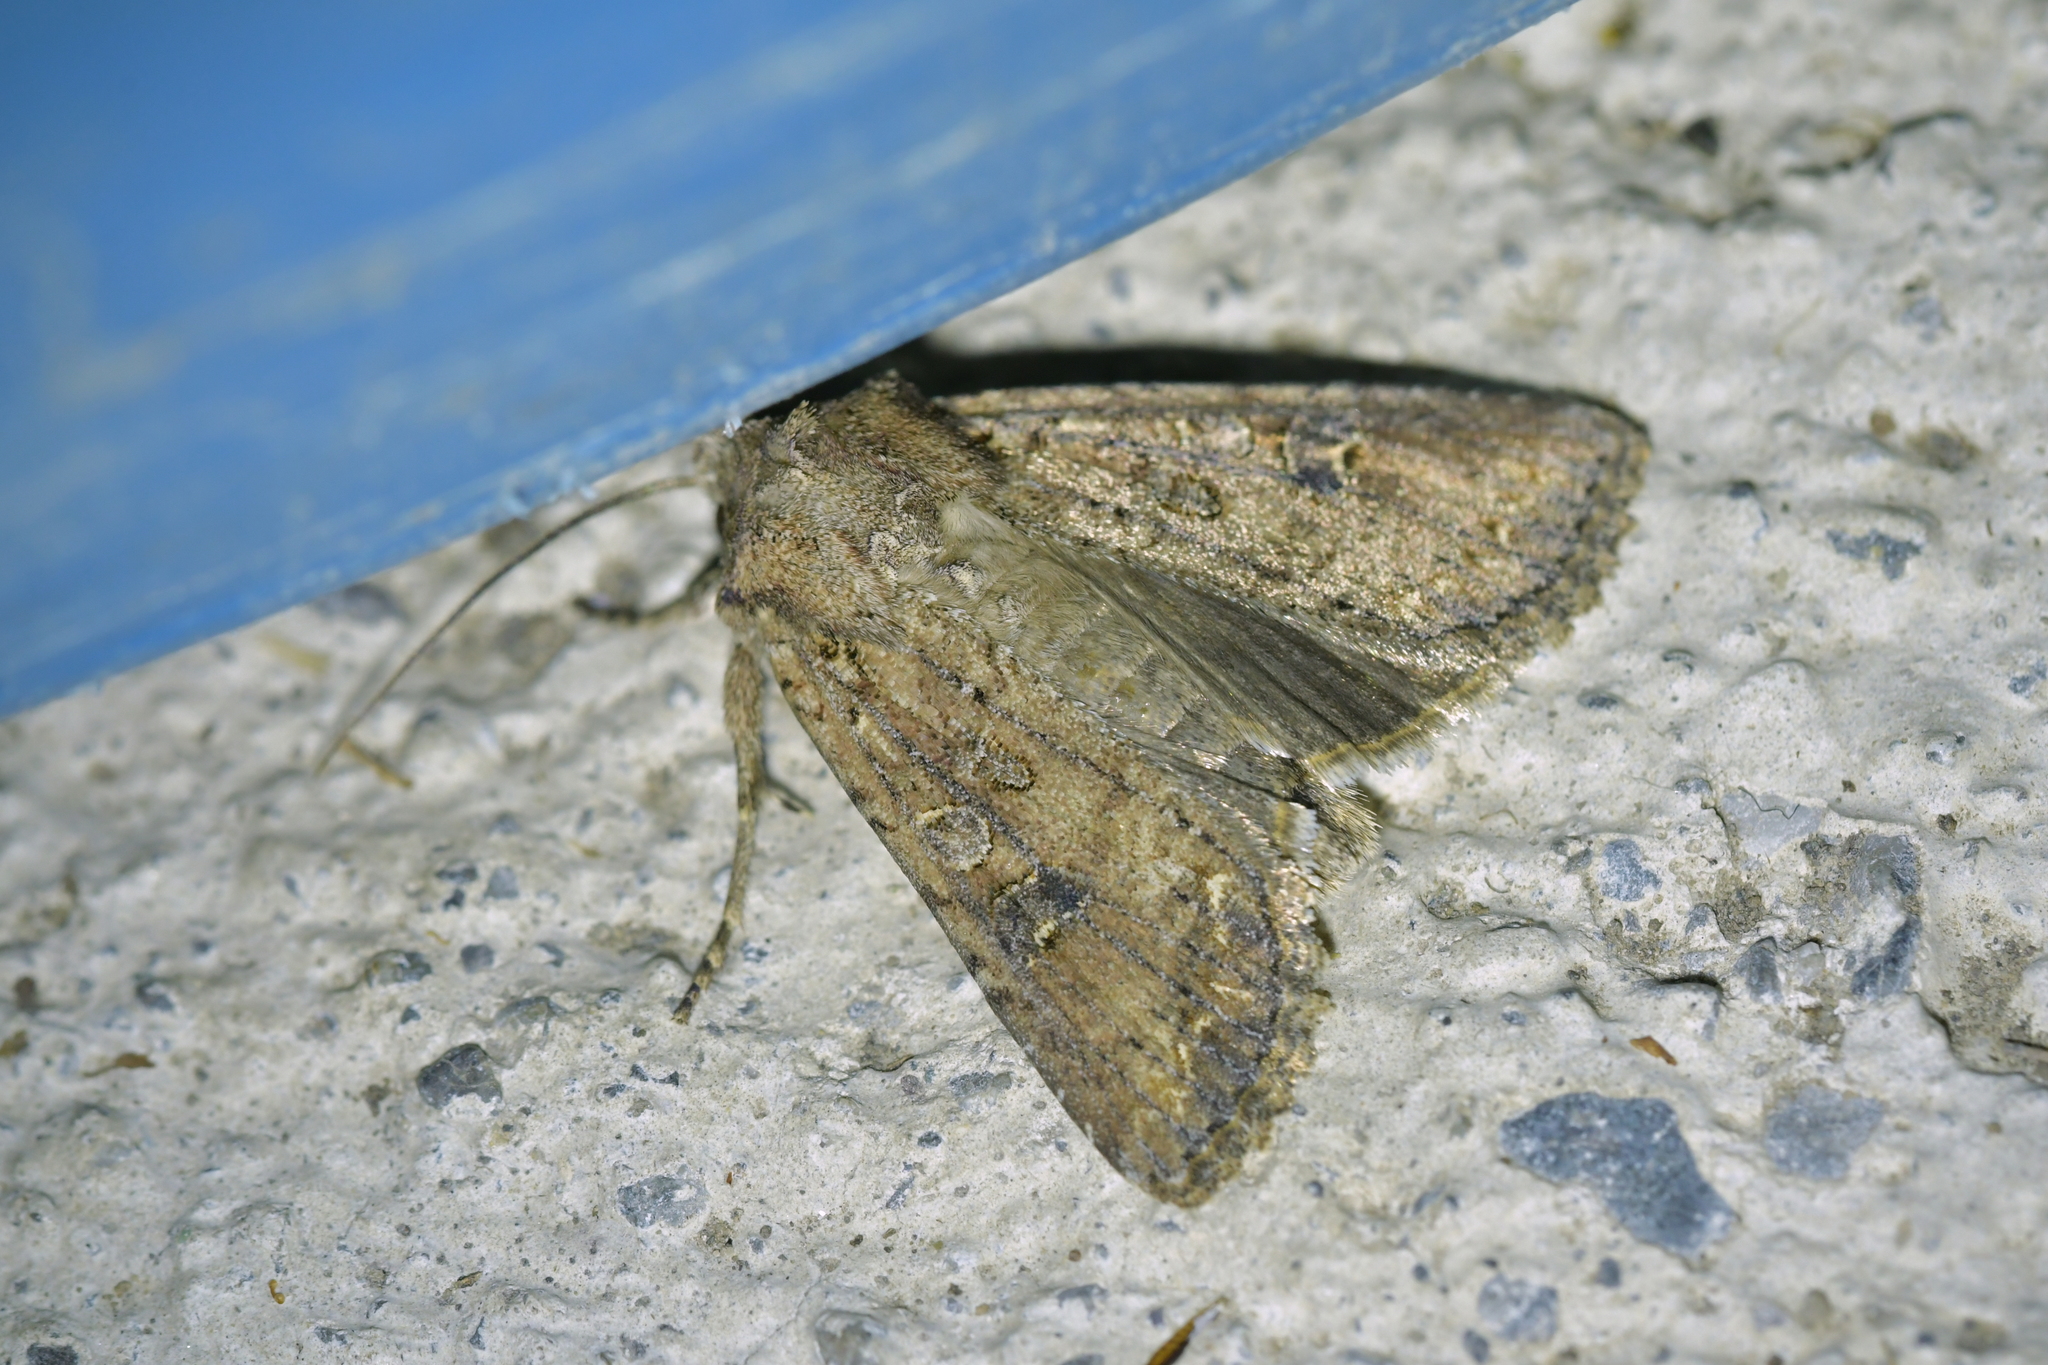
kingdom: Animalia
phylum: Arthropoda
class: Insecta
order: Lepidoptera
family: Noctuidae
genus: Ichneutica
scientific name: Ichneutica morosa
